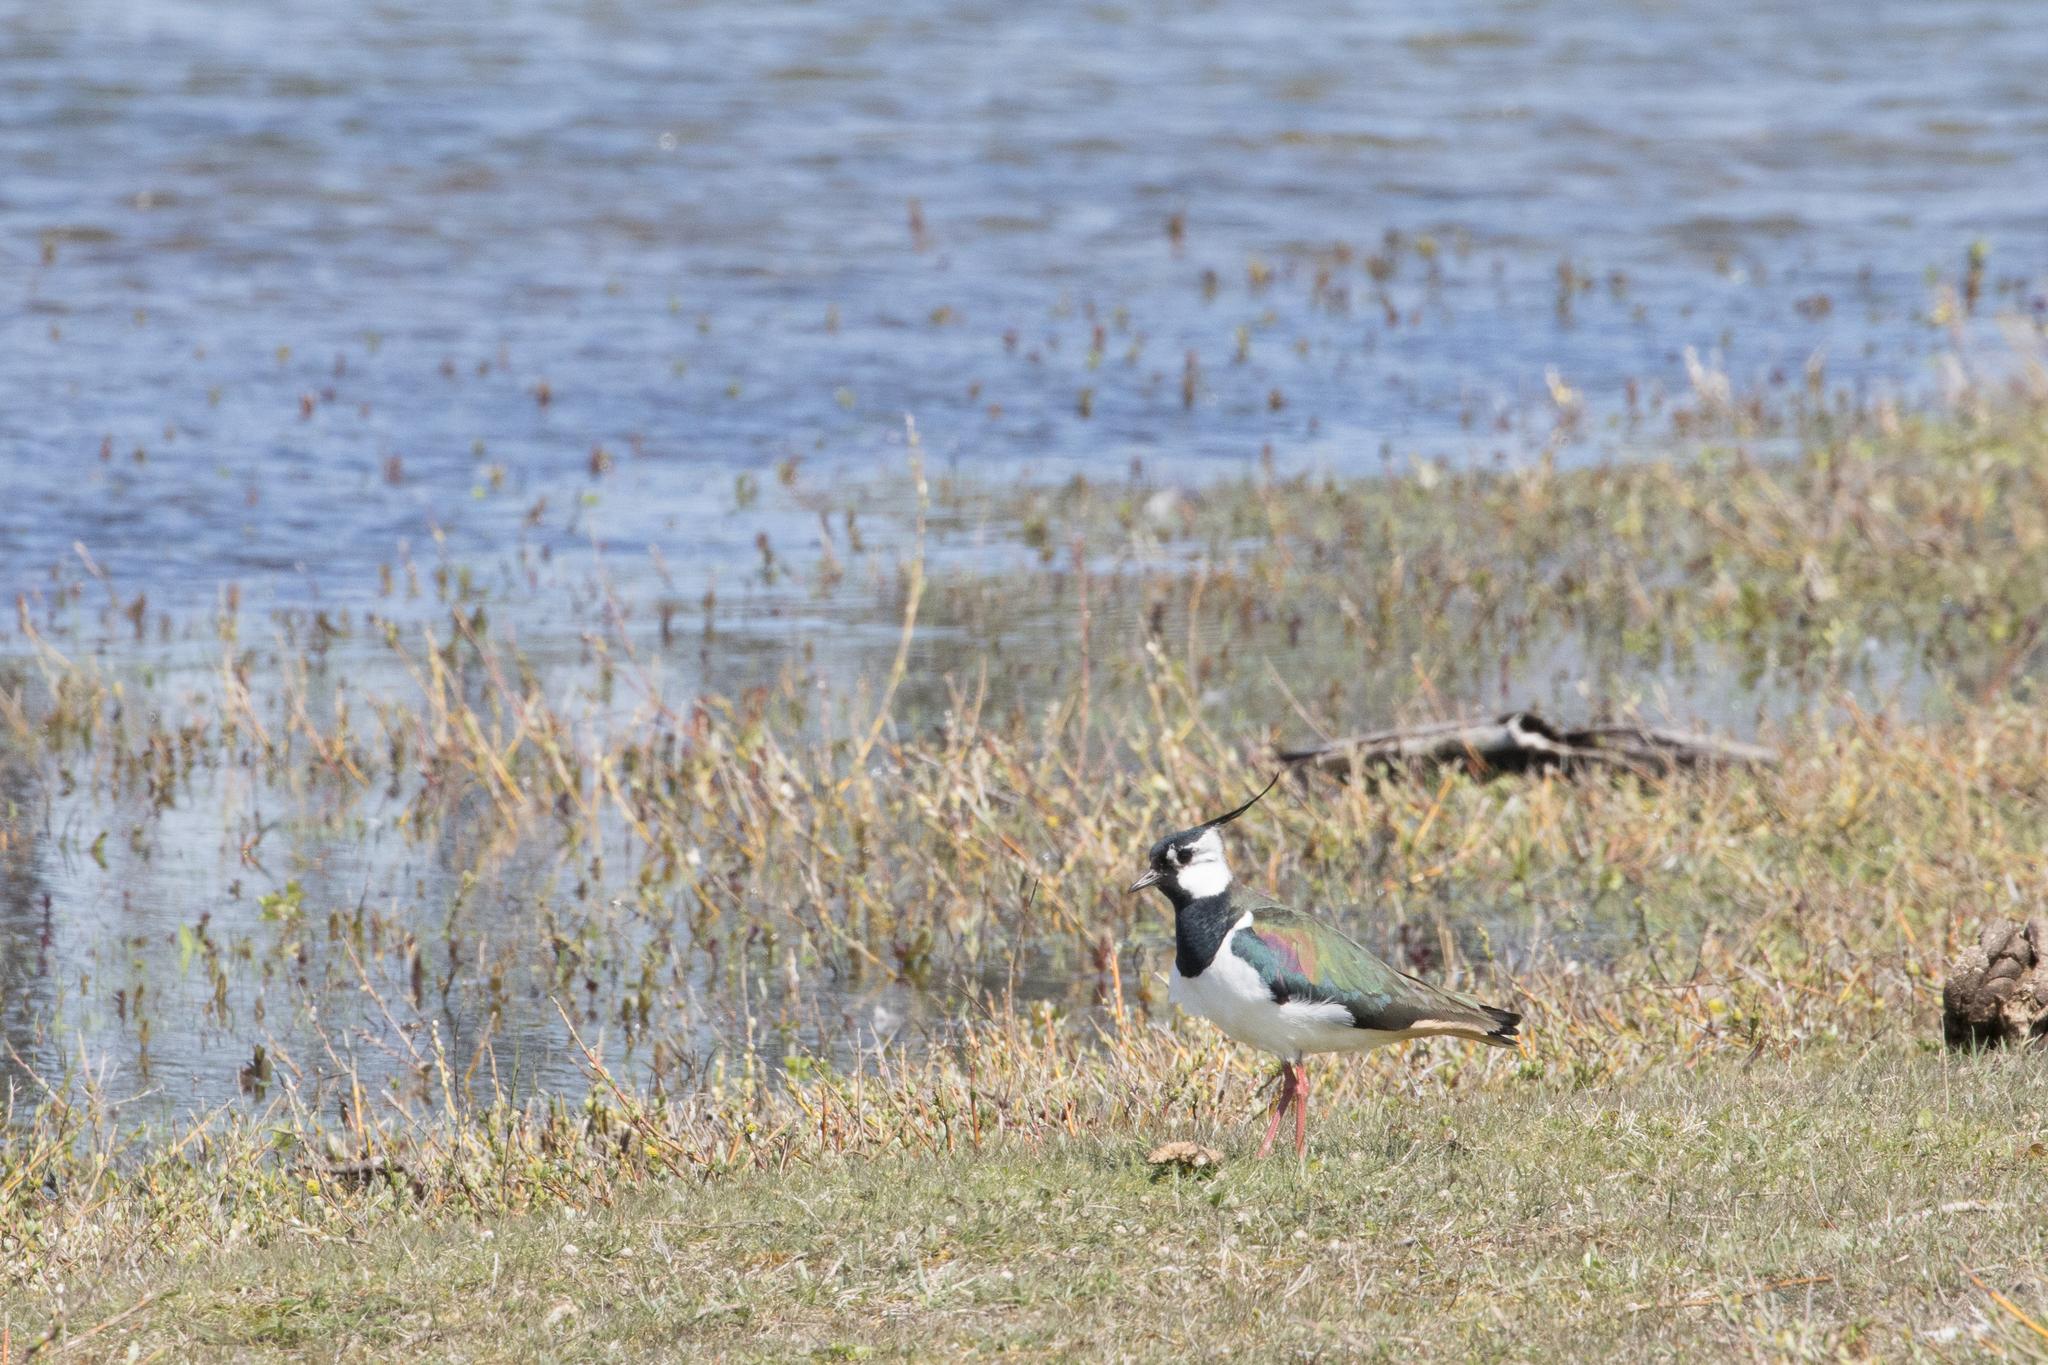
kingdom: Animalia
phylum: Chordata
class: Aves
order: Charadriiformes
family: Charadriidae
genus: Vanellus
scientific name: Vanellus vanellus
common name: Northern lapwing
